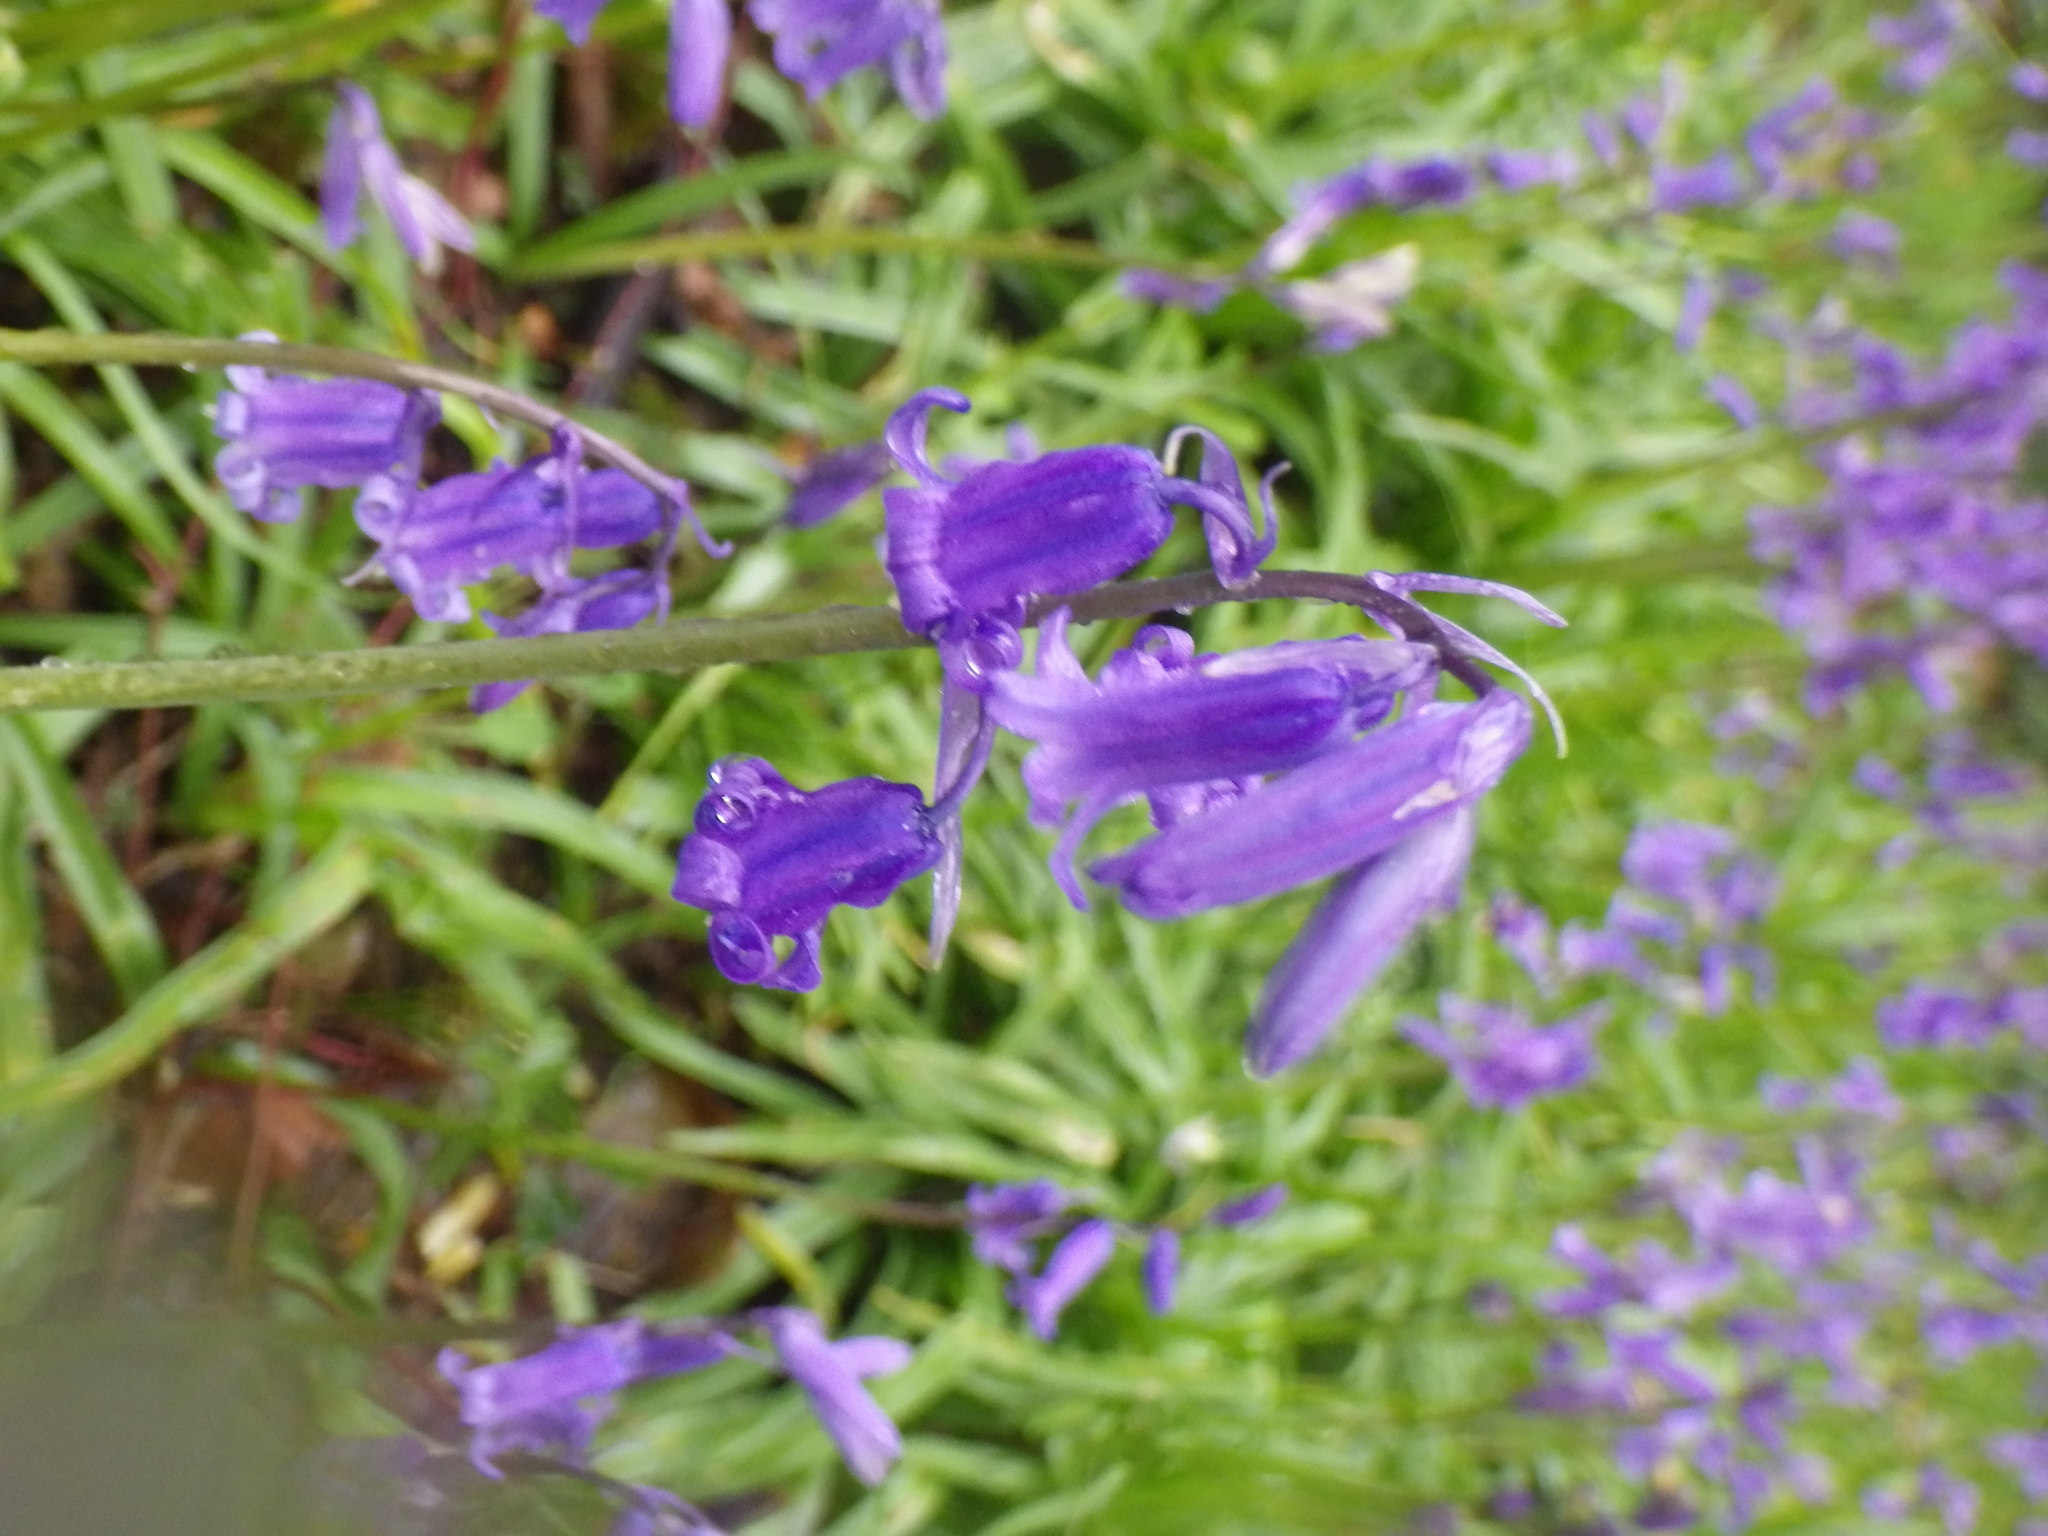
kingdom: Plantae
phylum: Tracheophyta
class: Liliopsida
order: Asparagales
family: Asparagaceae
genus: Hyacinthoides
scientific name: Hyacinthoides non-scripta
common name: Bluebell
